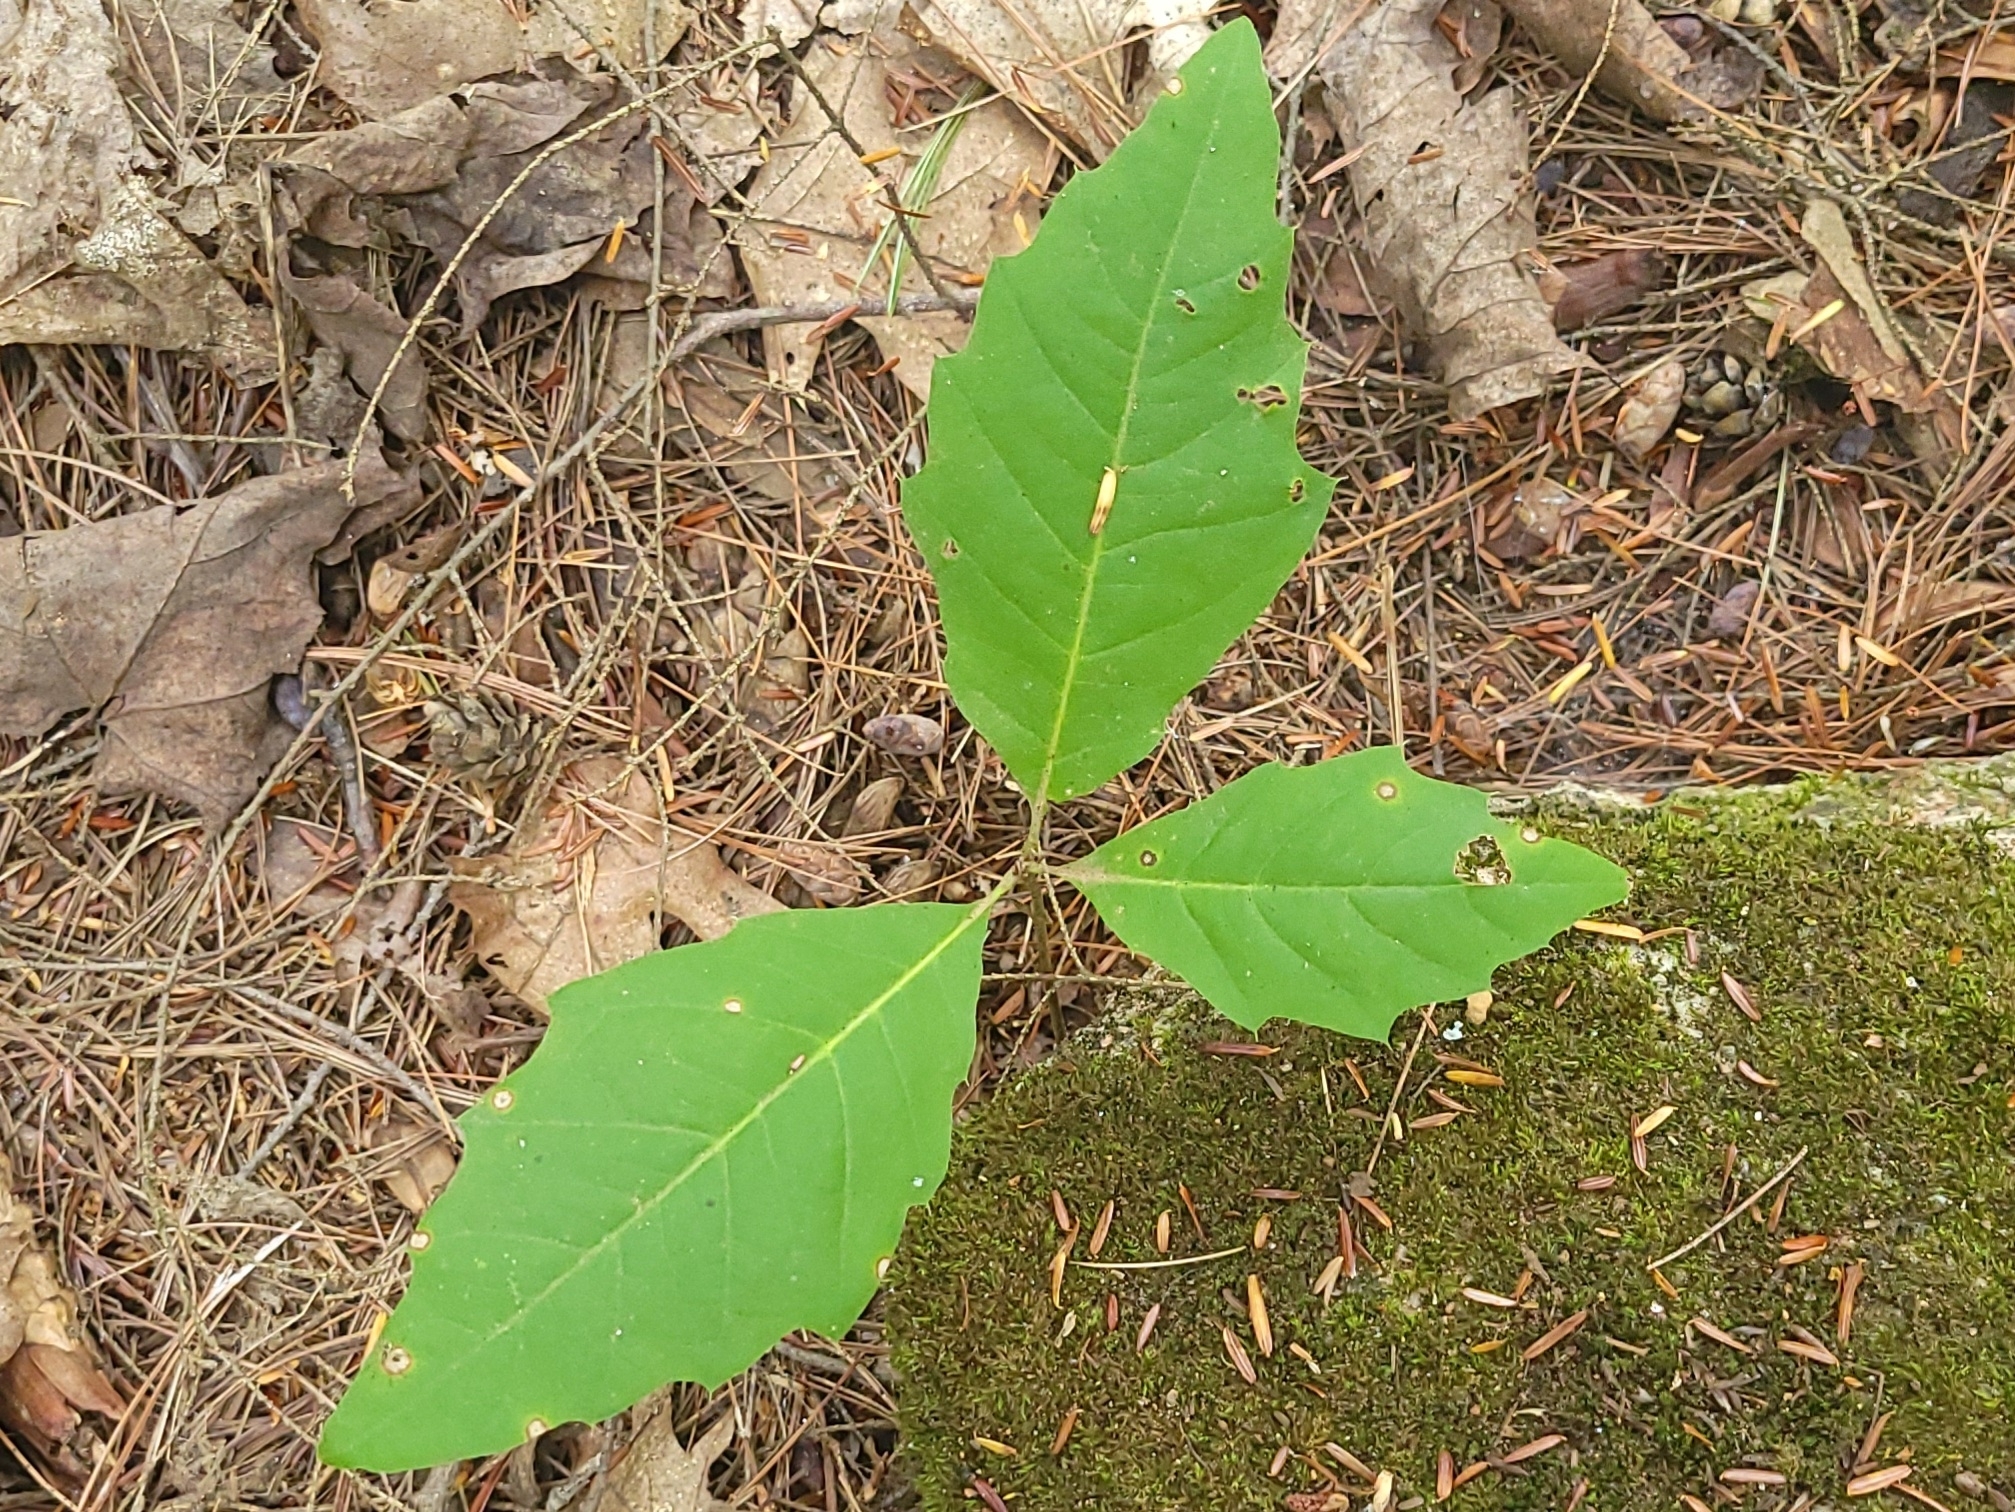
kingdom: Plantae
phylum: Tracheophyta
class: Magnoliopsida
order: Fagales
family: Fagaceae
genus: Quercus
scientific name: Quercus rubra
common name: Red oak
